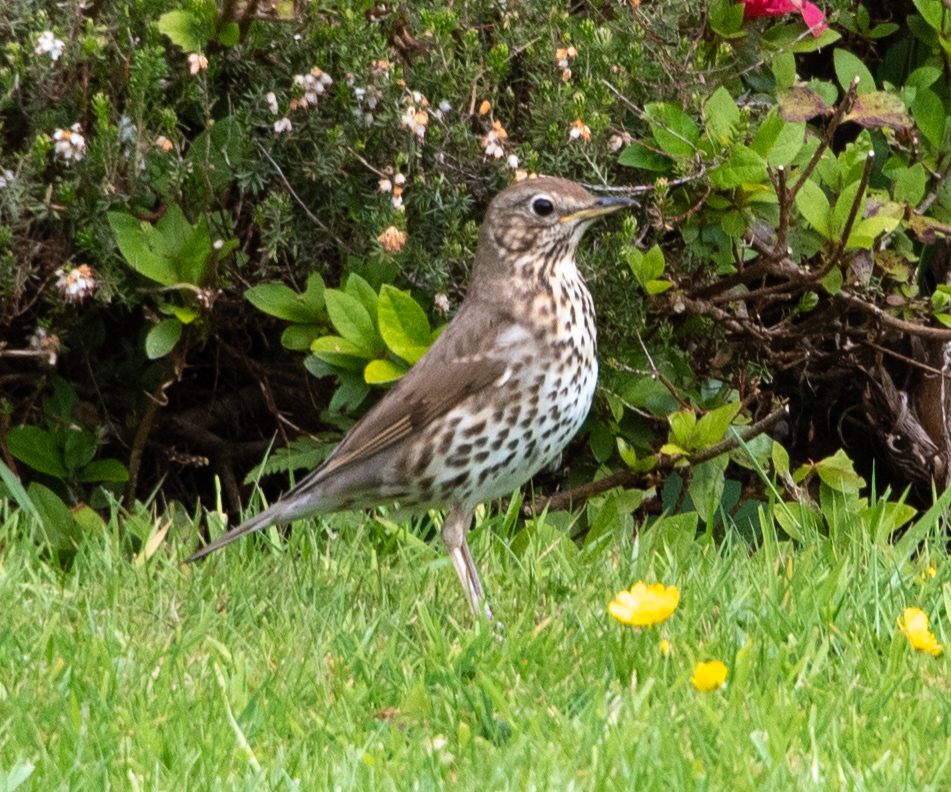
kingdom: Animalia
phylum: Chordata
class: Aves
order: Passeriformes
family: Turdidae
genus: Turdus
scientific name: Turdus philomelos
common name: Song thrush
